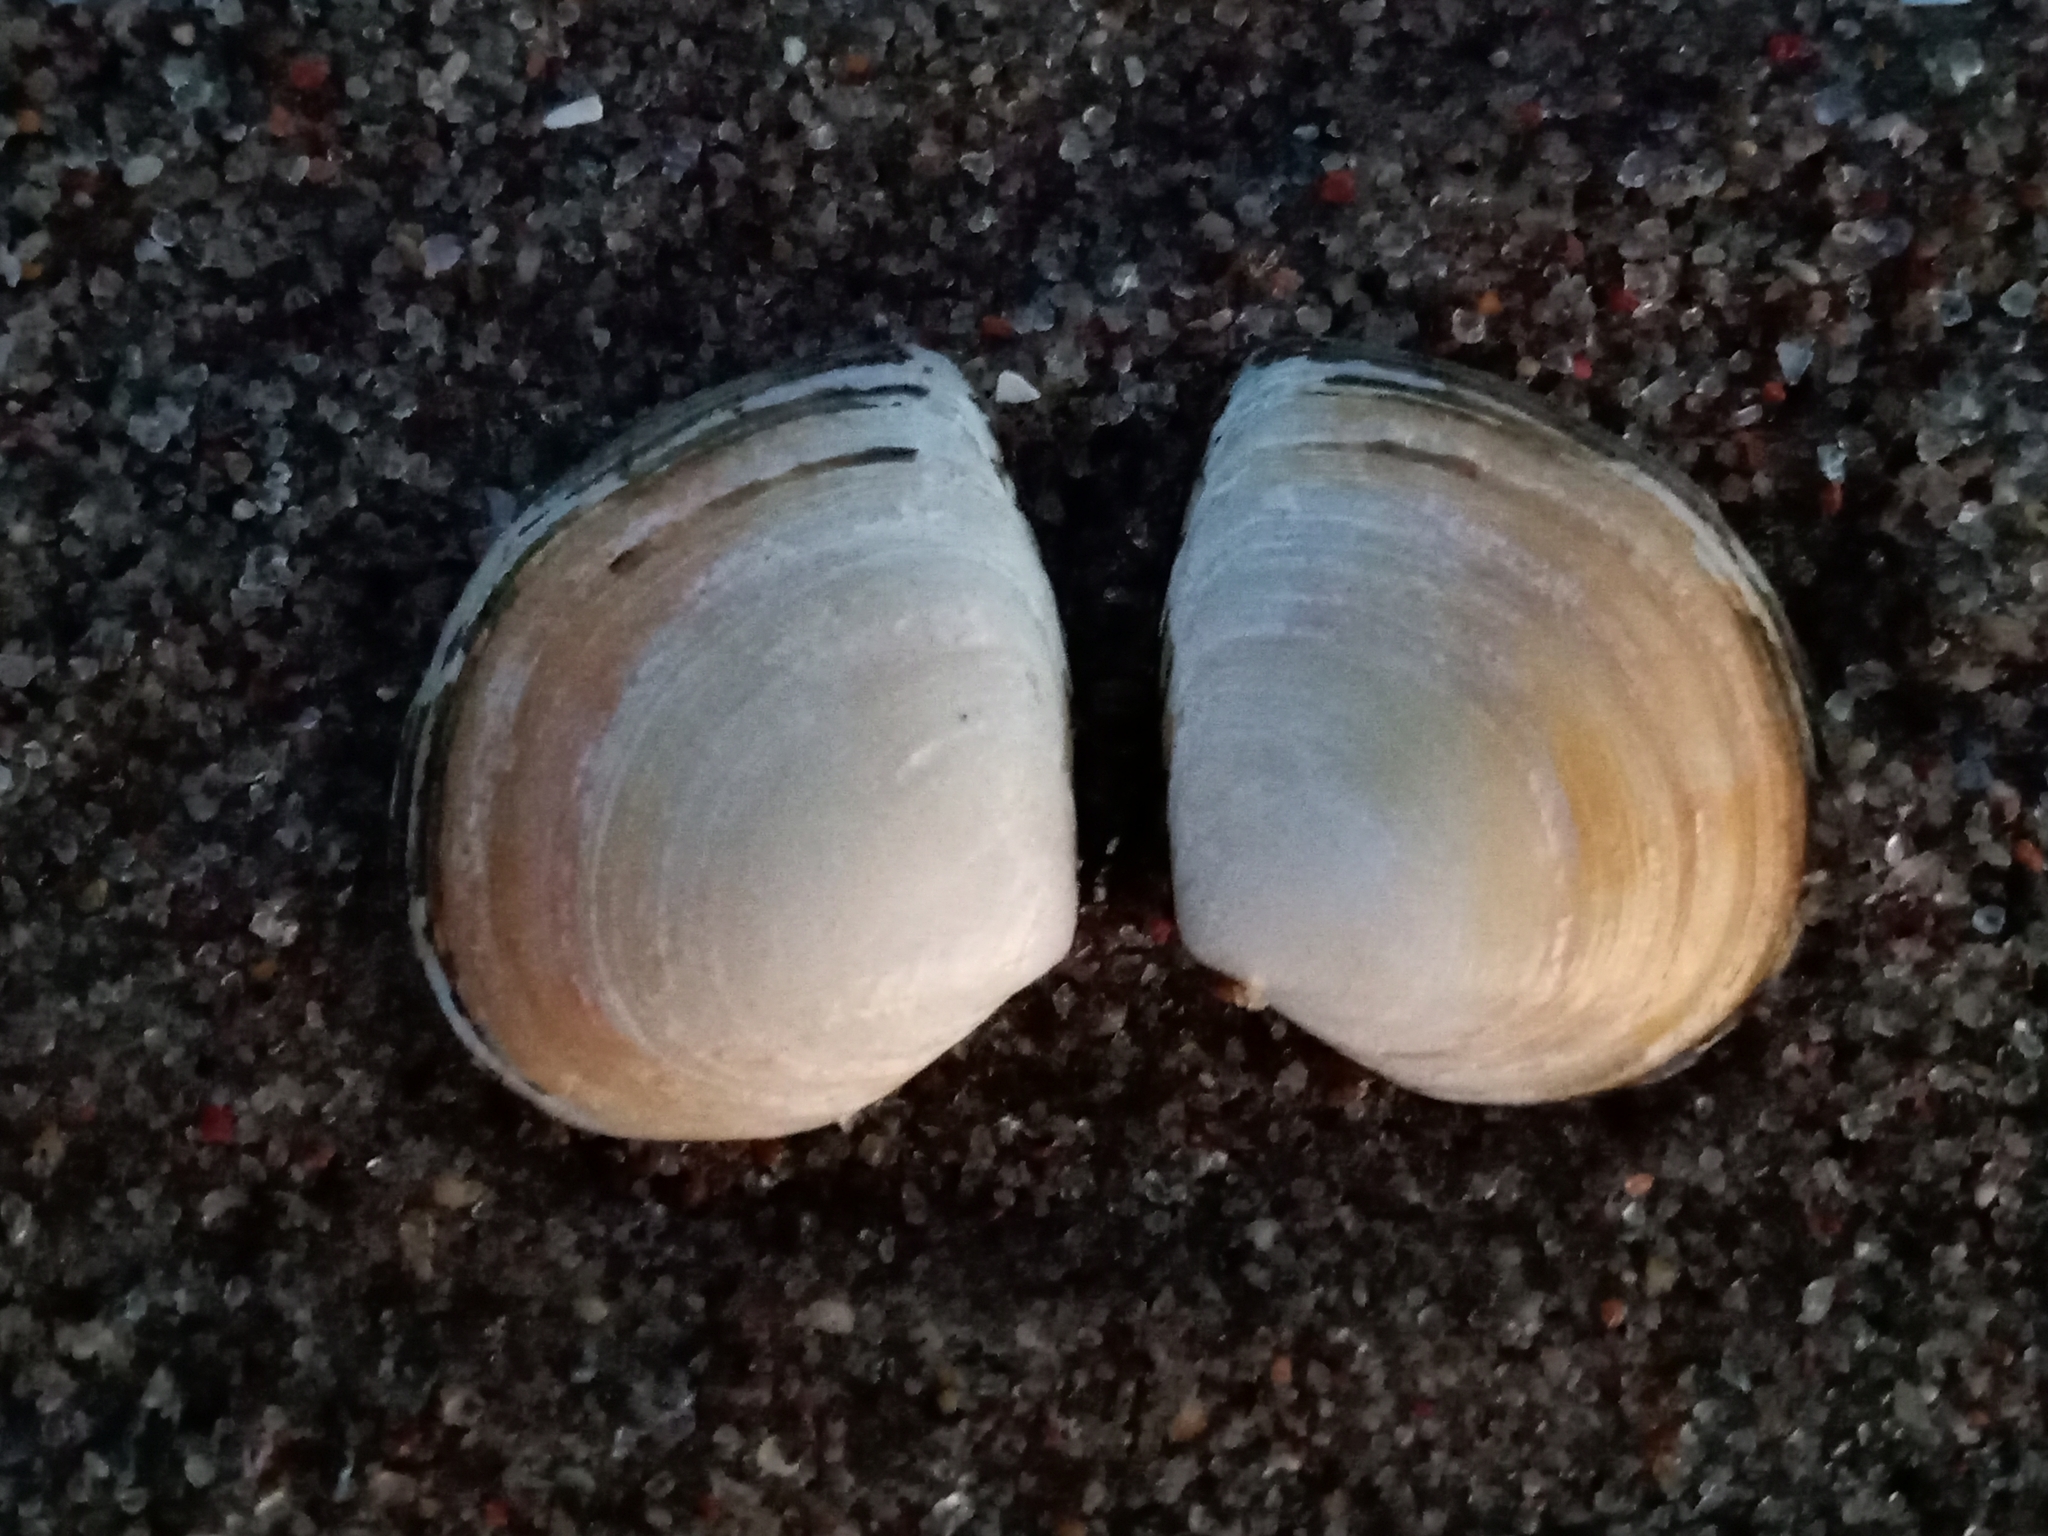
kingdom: Animalia
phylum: Mollusca
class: Bivalvia
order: Cardiida
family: Tellinidae
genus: Macoma
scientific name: Macoma balthica
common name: Baltic tellin
